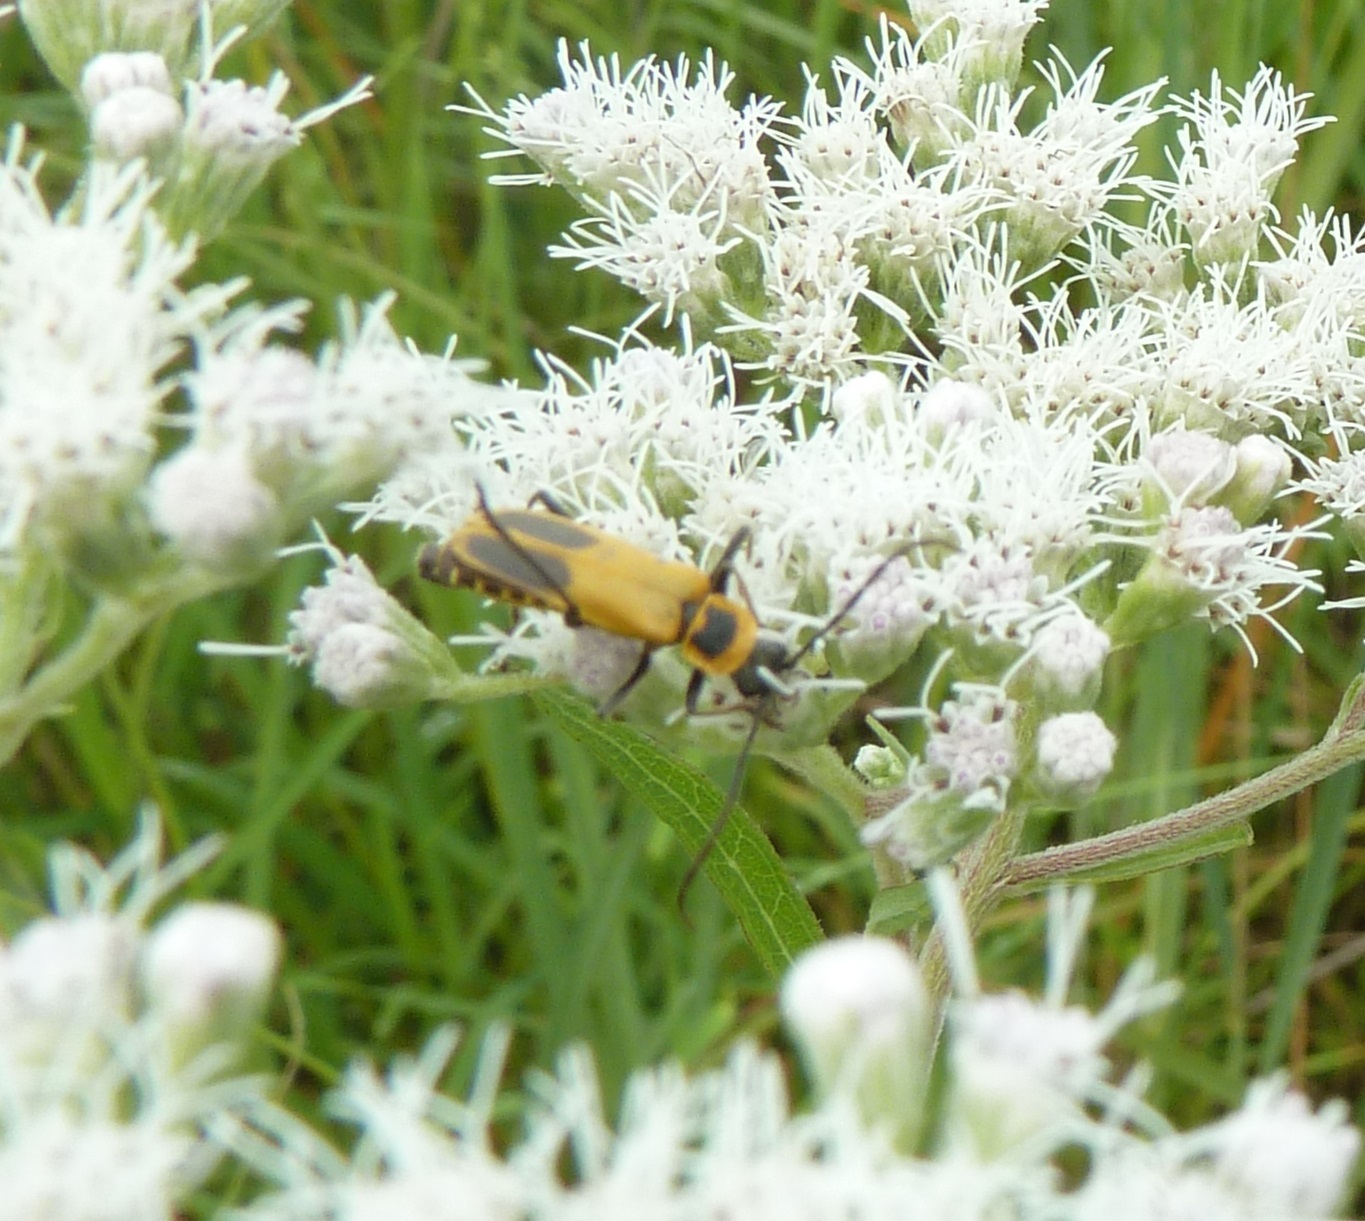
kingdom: Animalia
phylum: Arthropoda
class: Insecta
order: Coleoptera
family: Cantharidae
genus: Chauliognathus
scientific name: Chauliognathus pensylvanicus
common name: Goldenrod soldier beetle
